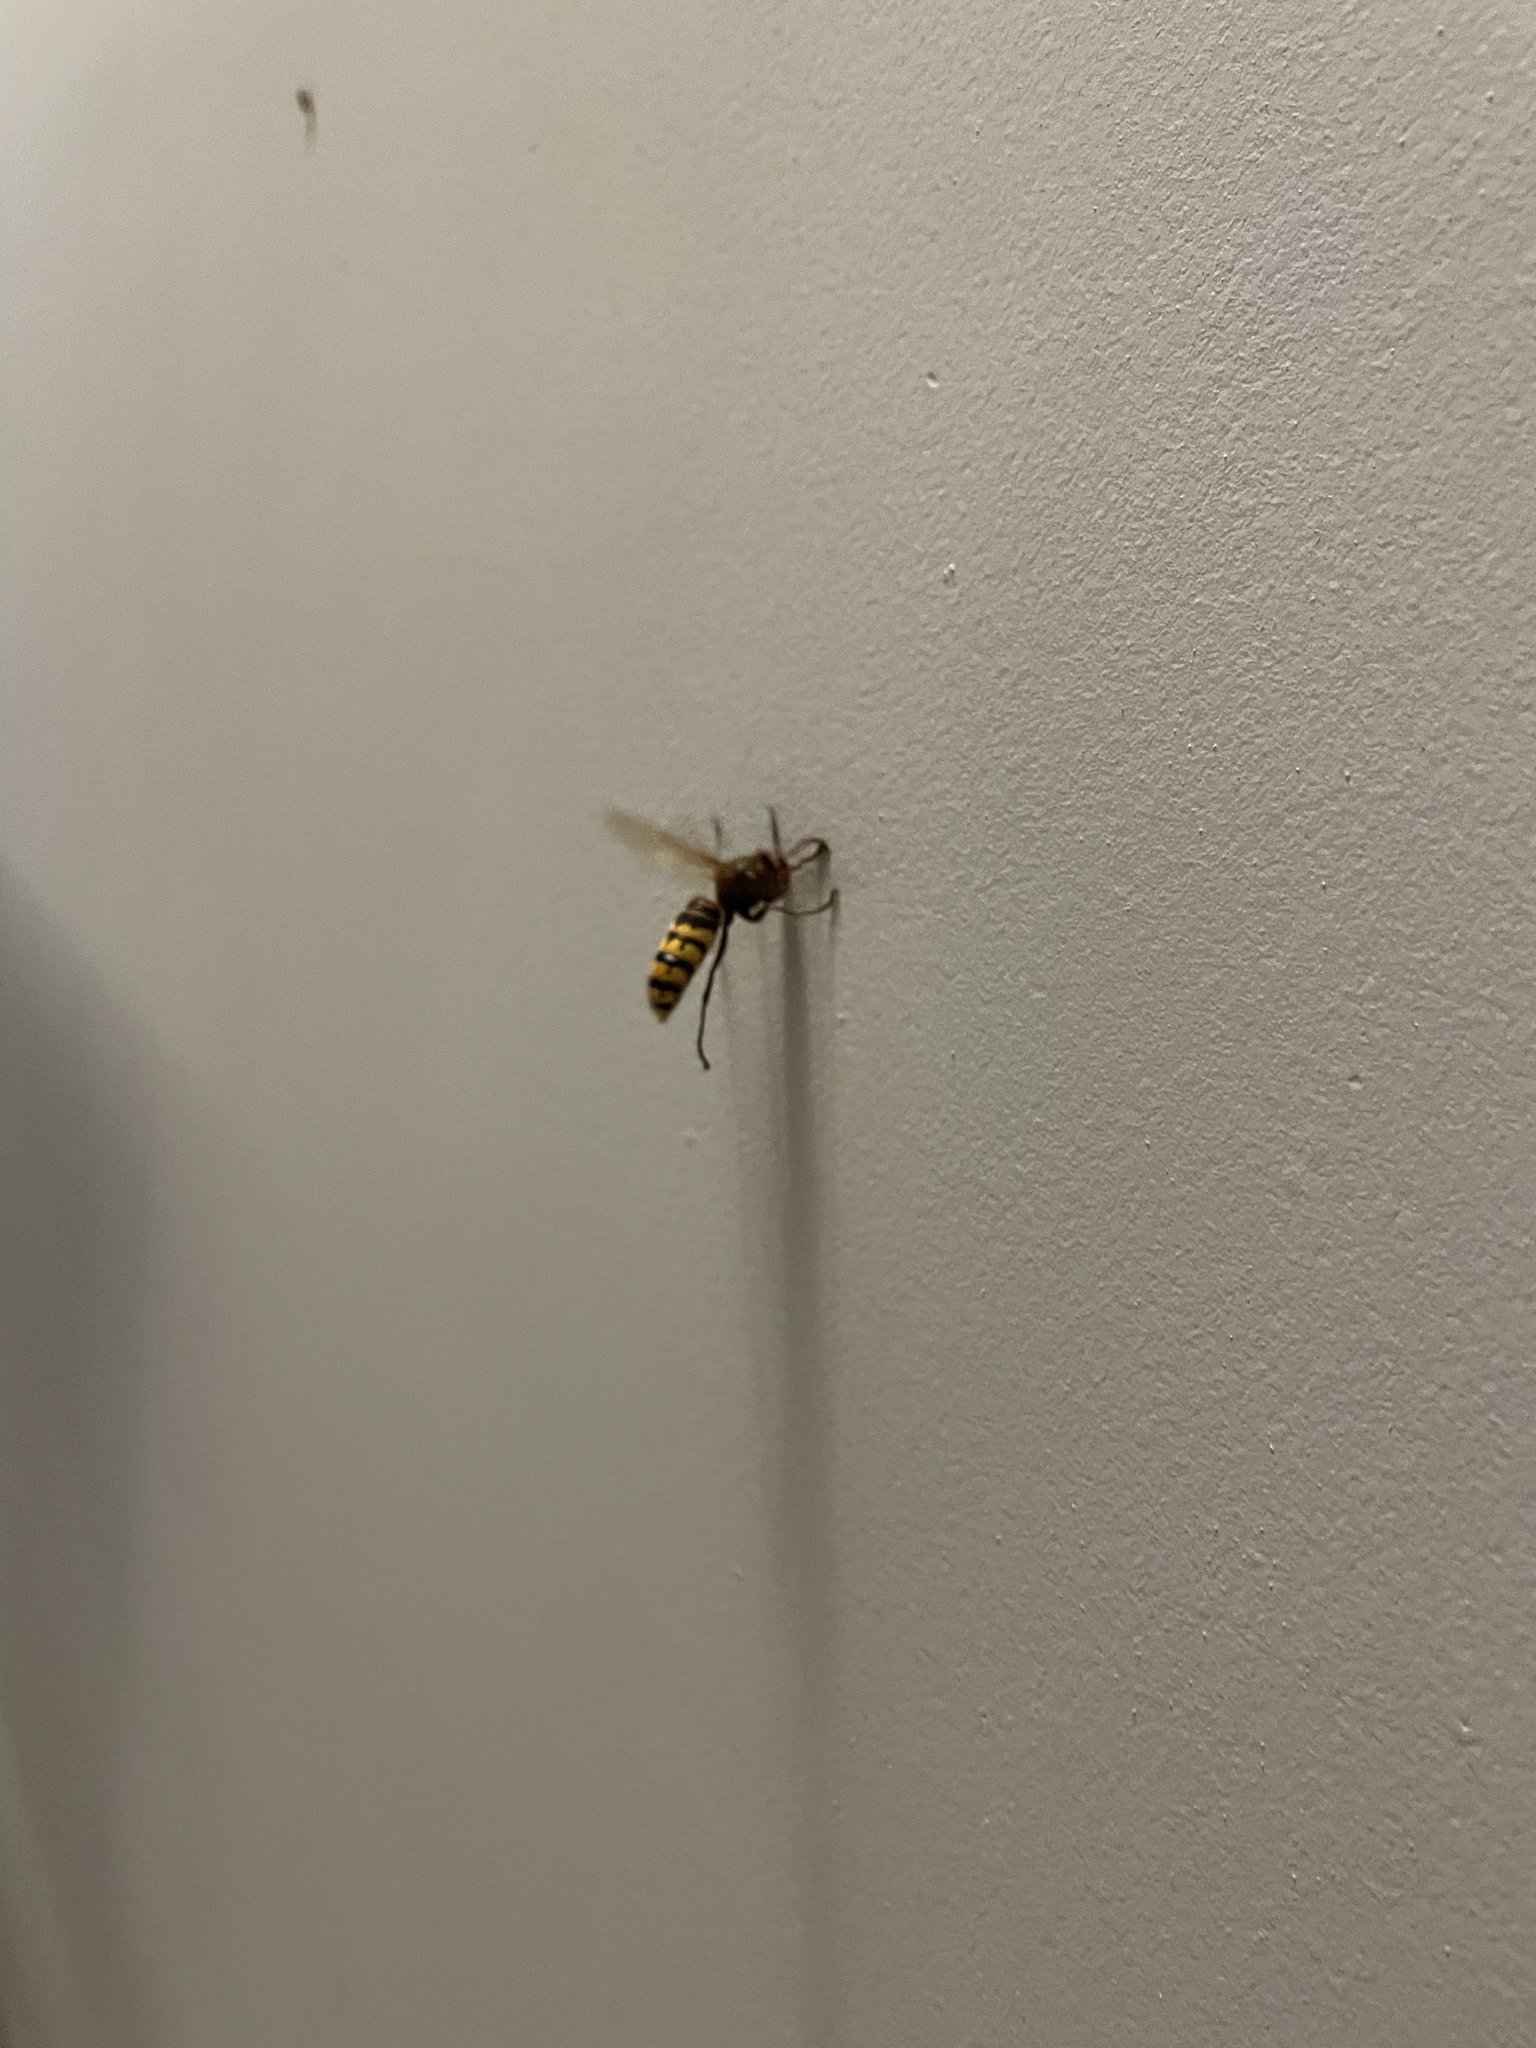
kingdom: Animalia
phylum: Arthropoda
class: Insecta
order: Hymenoptera
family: Vespidae
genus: Vespa
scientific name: Vespa crabro
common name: Hornet
